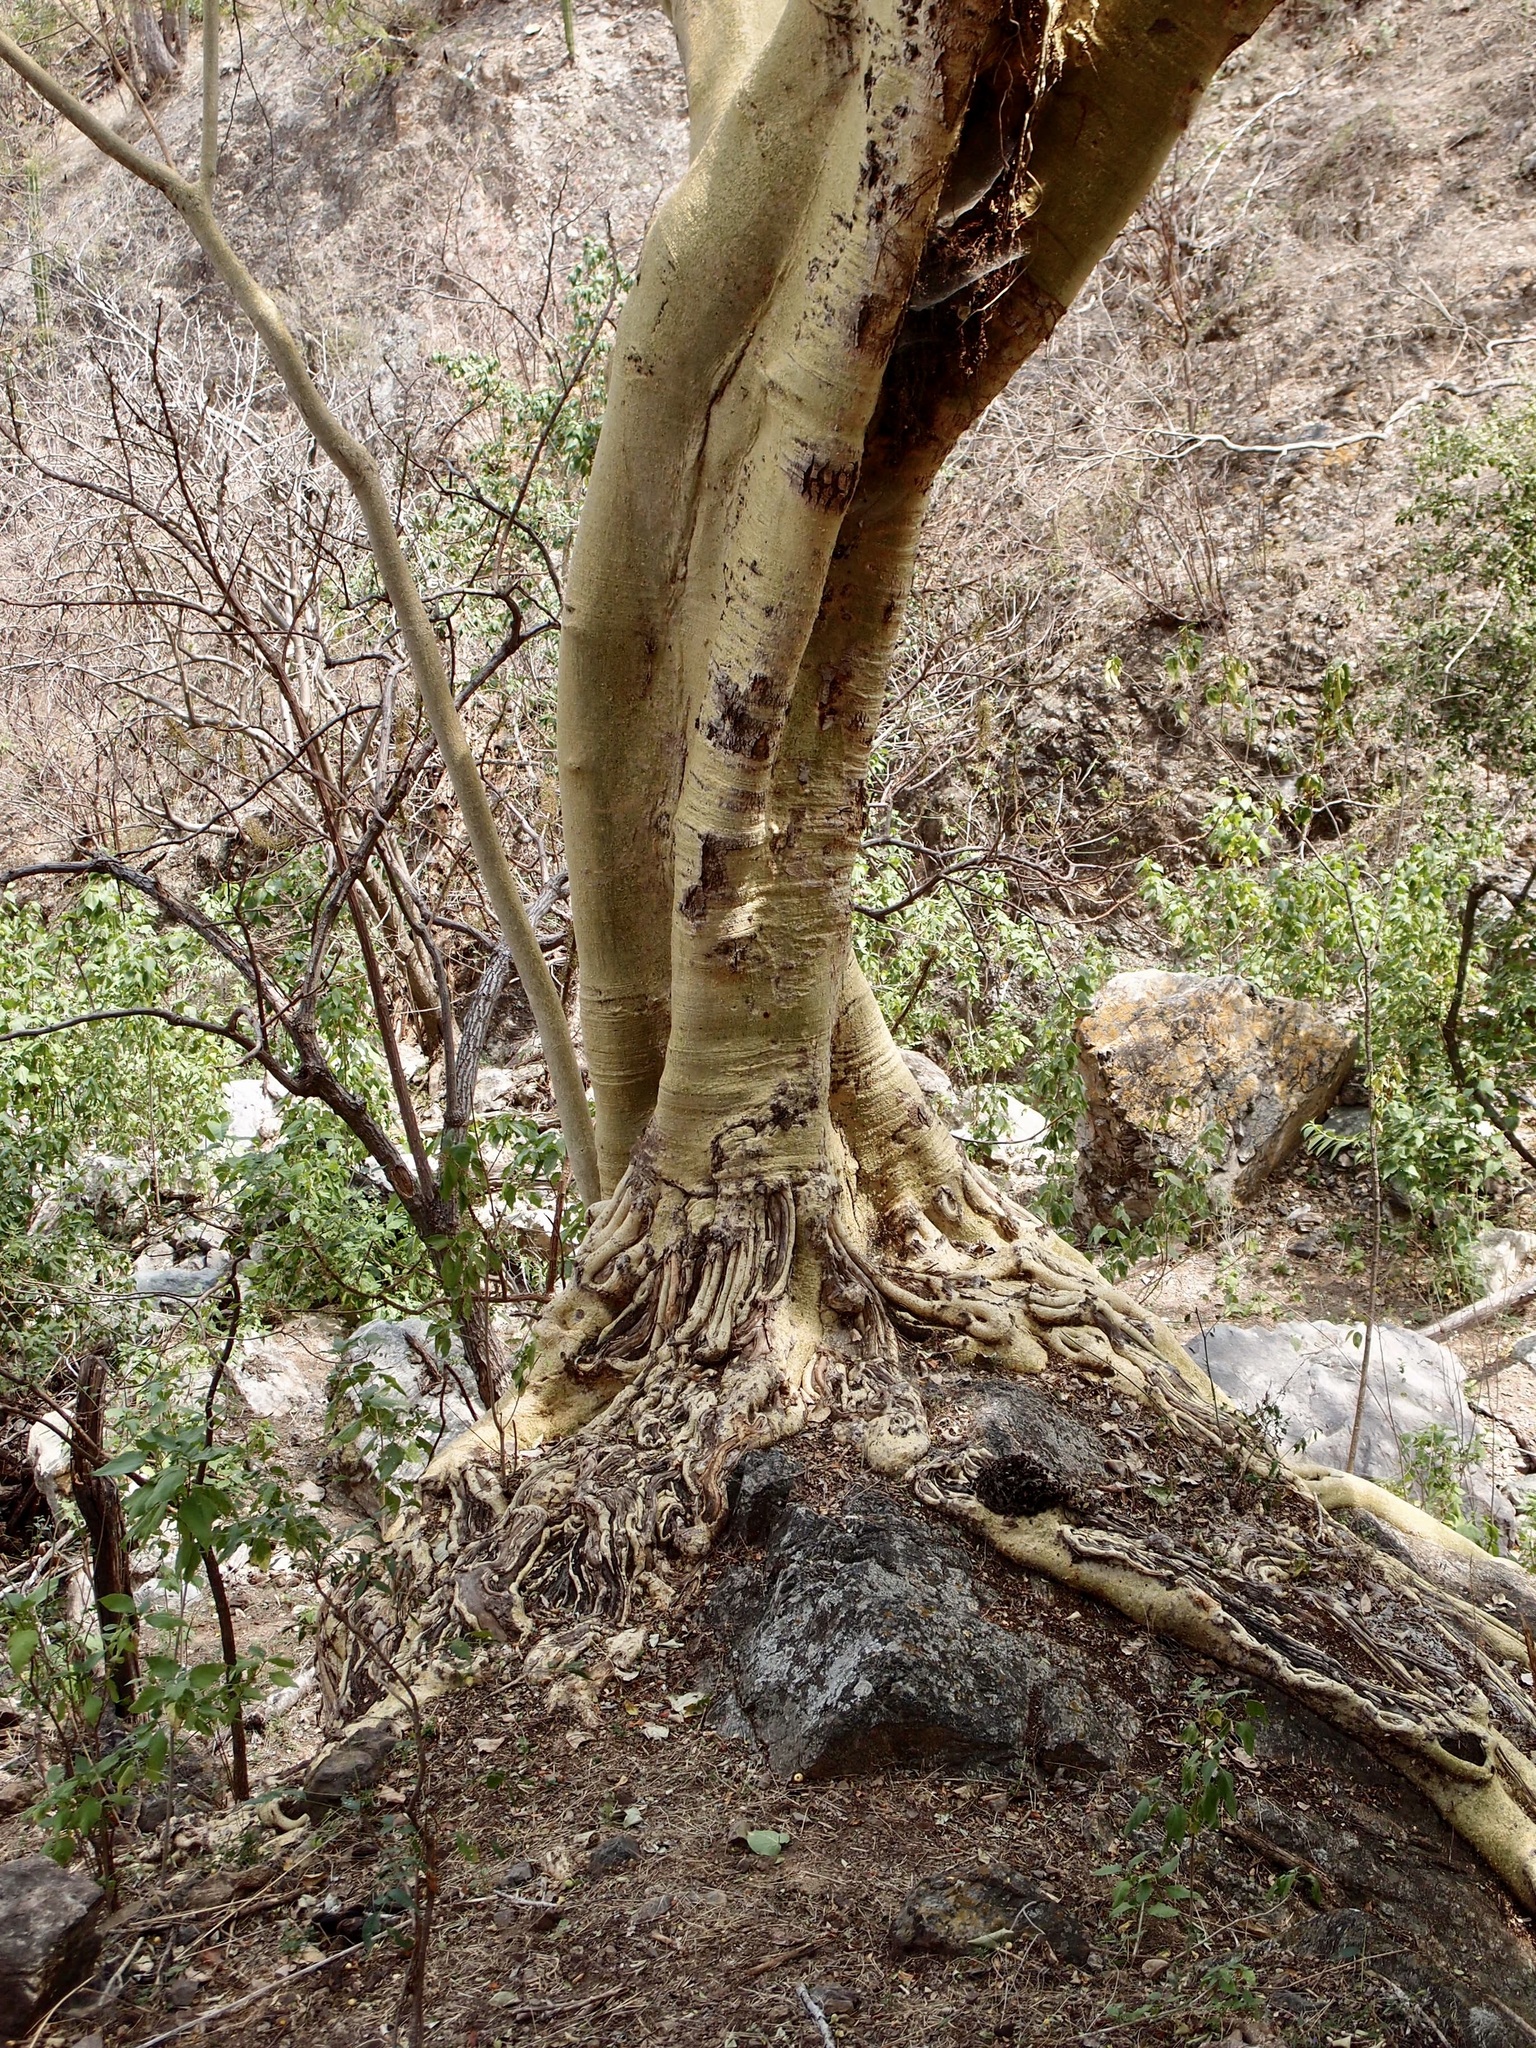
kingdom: Plantae
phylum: Tracheophyta
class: Magnoliopsida
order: Rosales
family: Moraceae
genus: Ficus
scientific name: Ficus petiolaris
